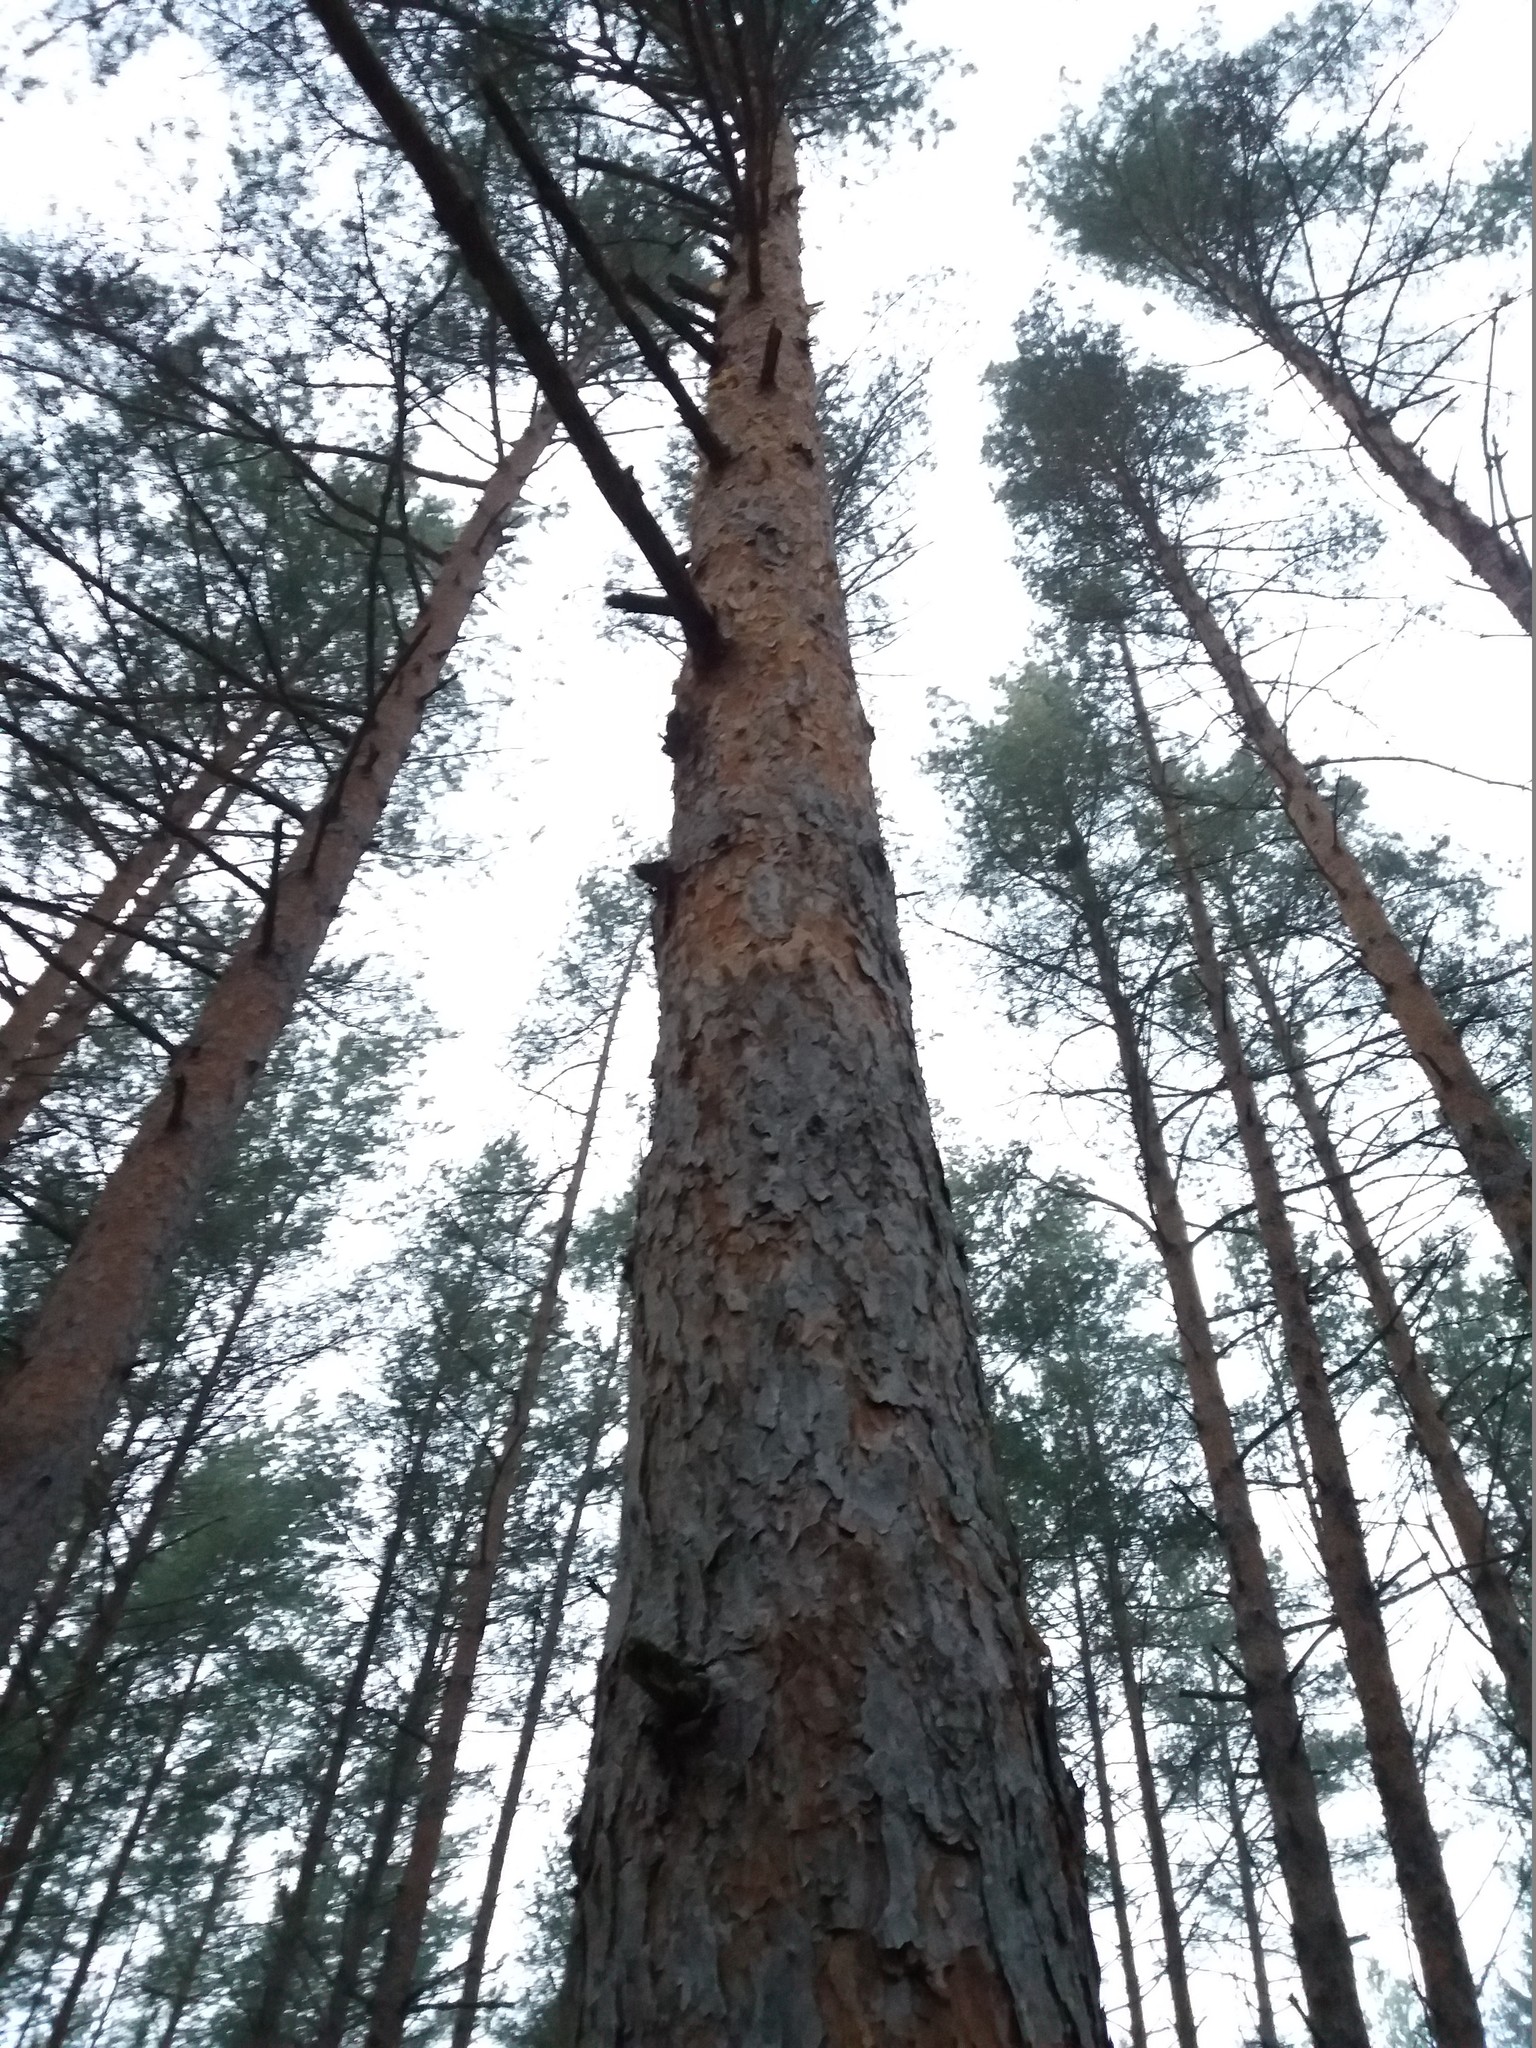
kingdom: Plantae
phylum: Tracheophyta
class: Pinopsida
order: Pinales
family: Pinaceae
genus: Pinus
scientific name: Pinus sylvestris
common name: Scots pine
